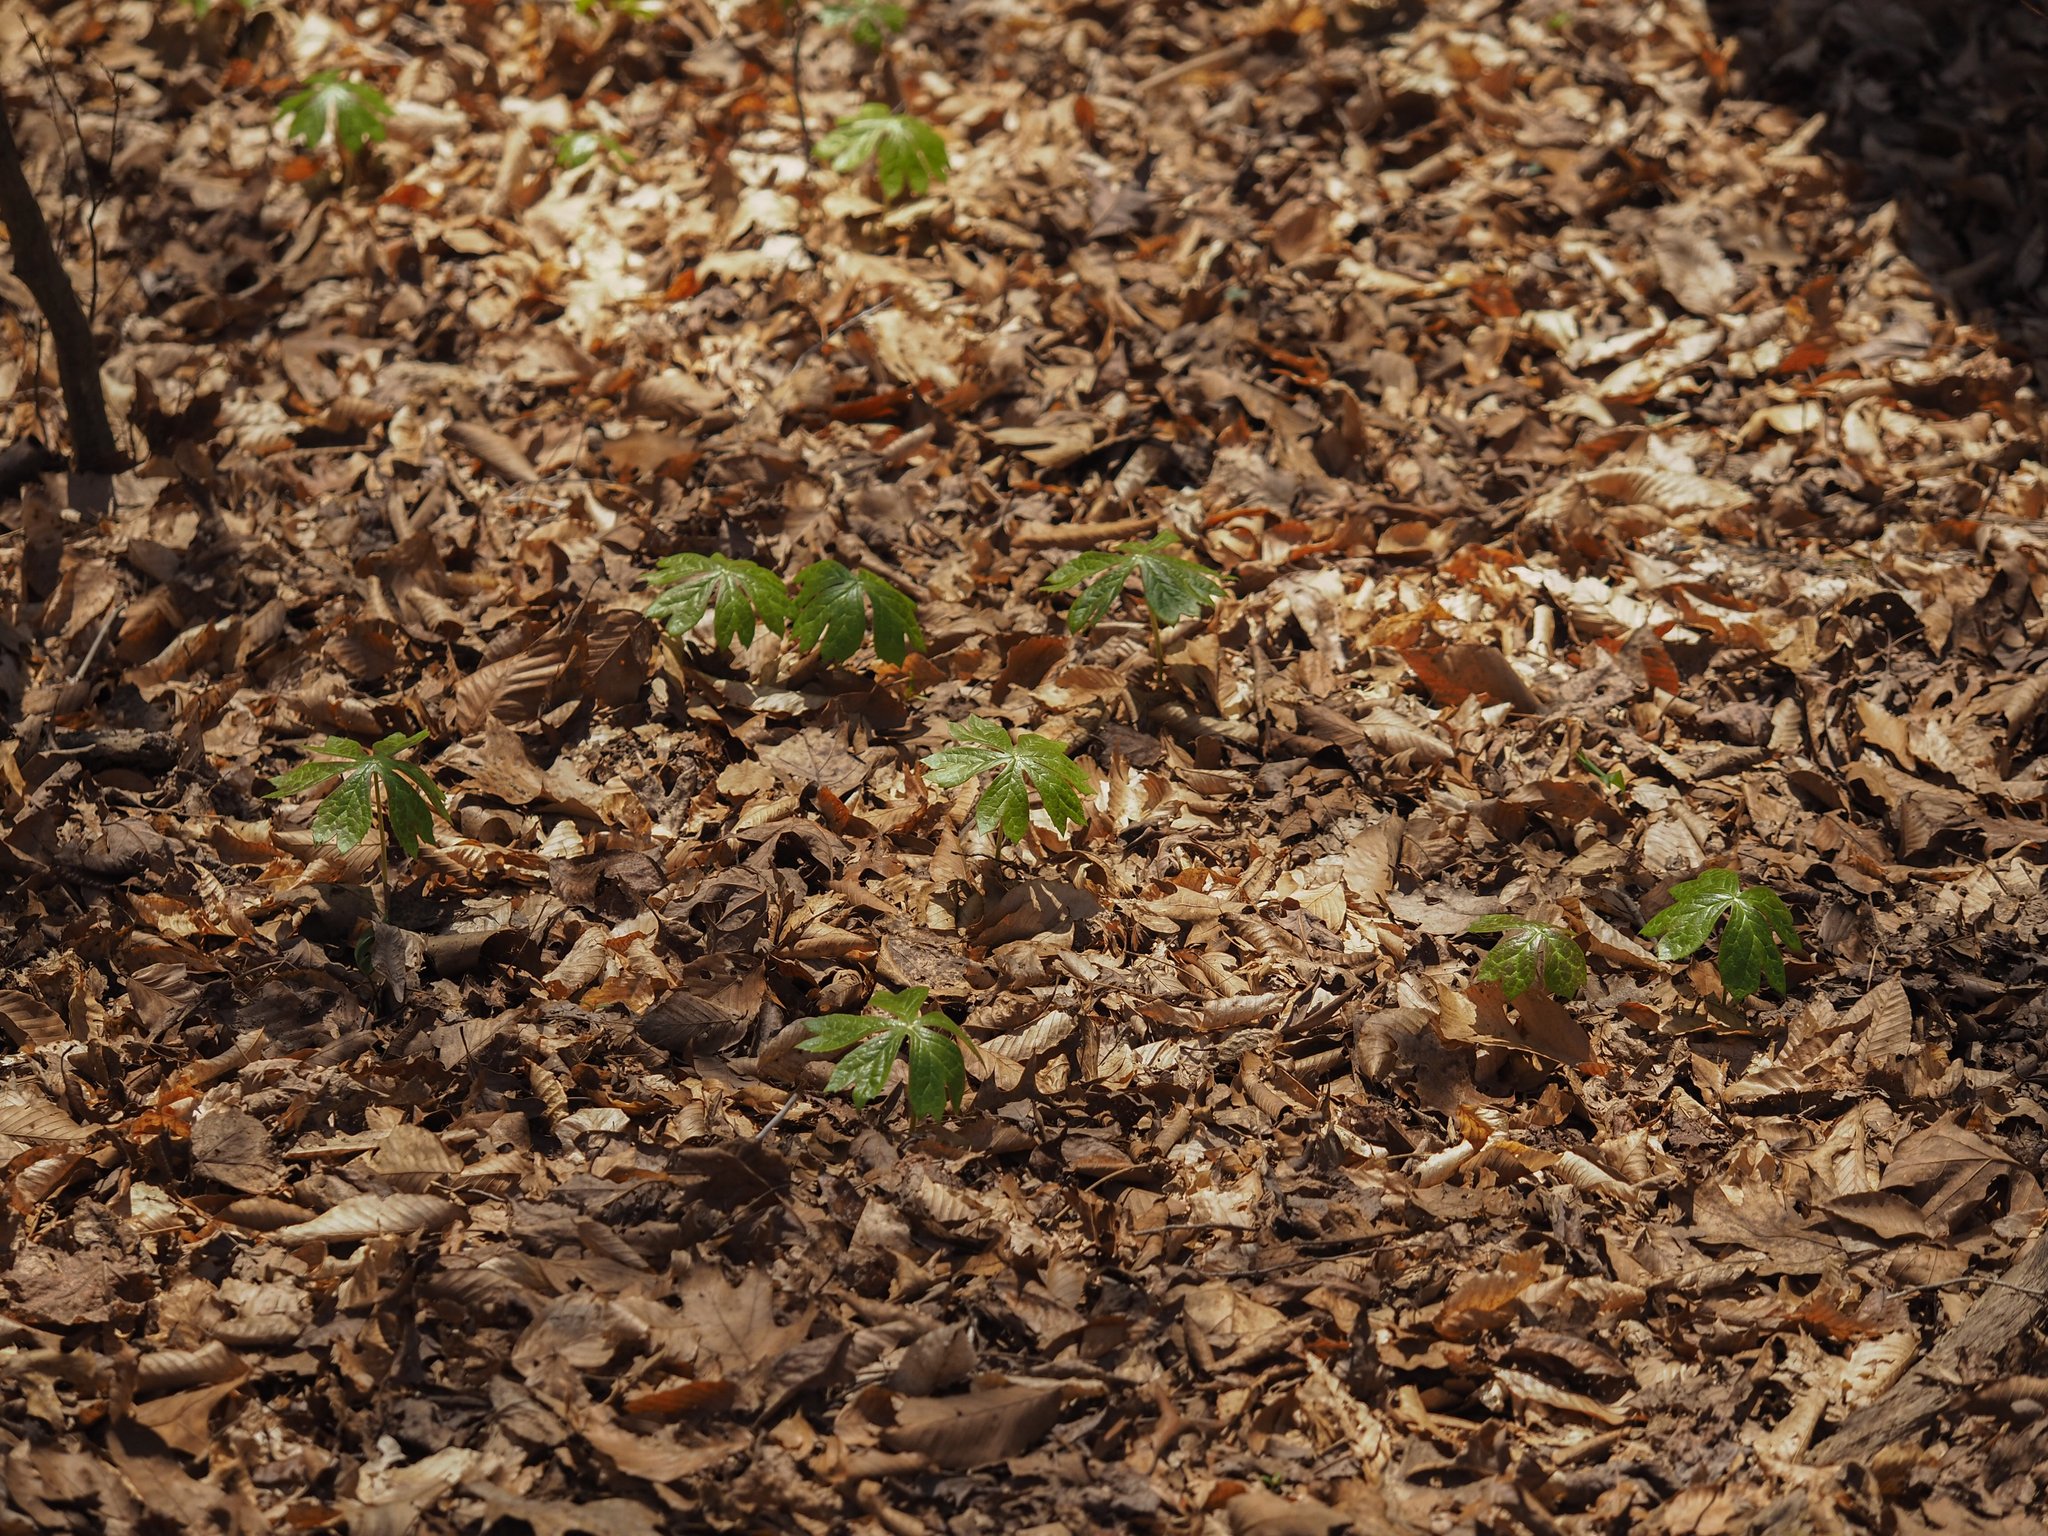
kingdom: Plantae
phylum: Tracheophyta
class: Magnoliopsida
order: Ranunculales
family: Berberidaceae
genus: Podophyllum
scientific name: Podophyllum peltatum
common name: Wild mandrake
